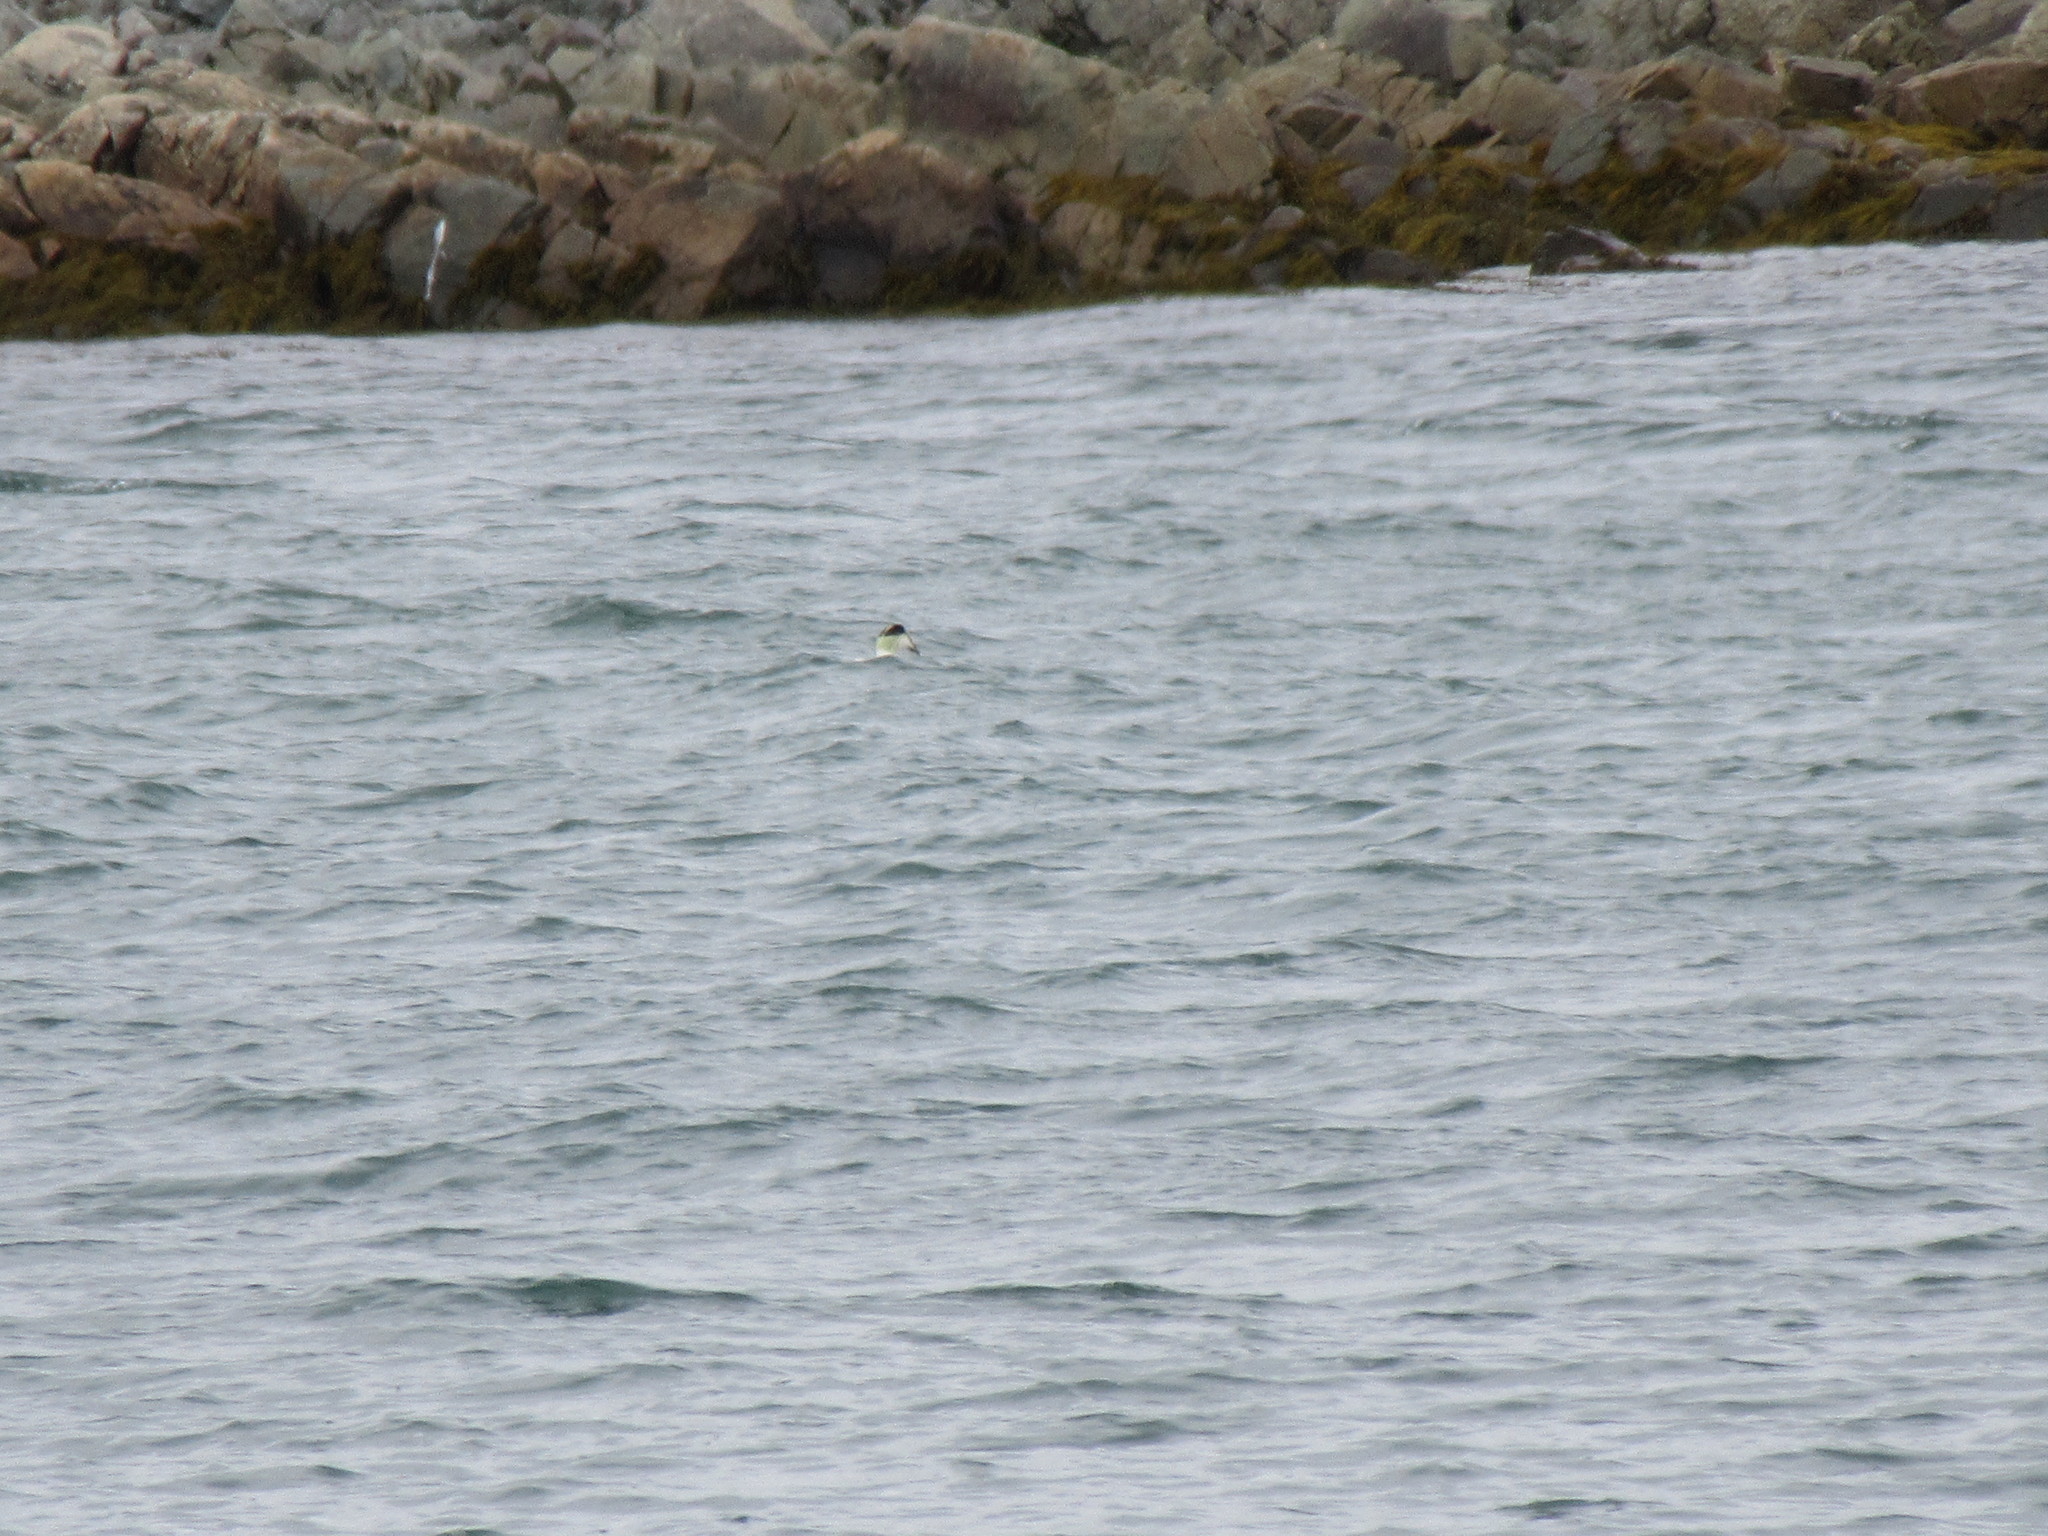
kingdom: Animalia
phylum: Chordata
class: Aves
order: Anseriformes
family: Anatidae
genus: Somateria
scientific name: Somateria mollissima
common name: Common eider
